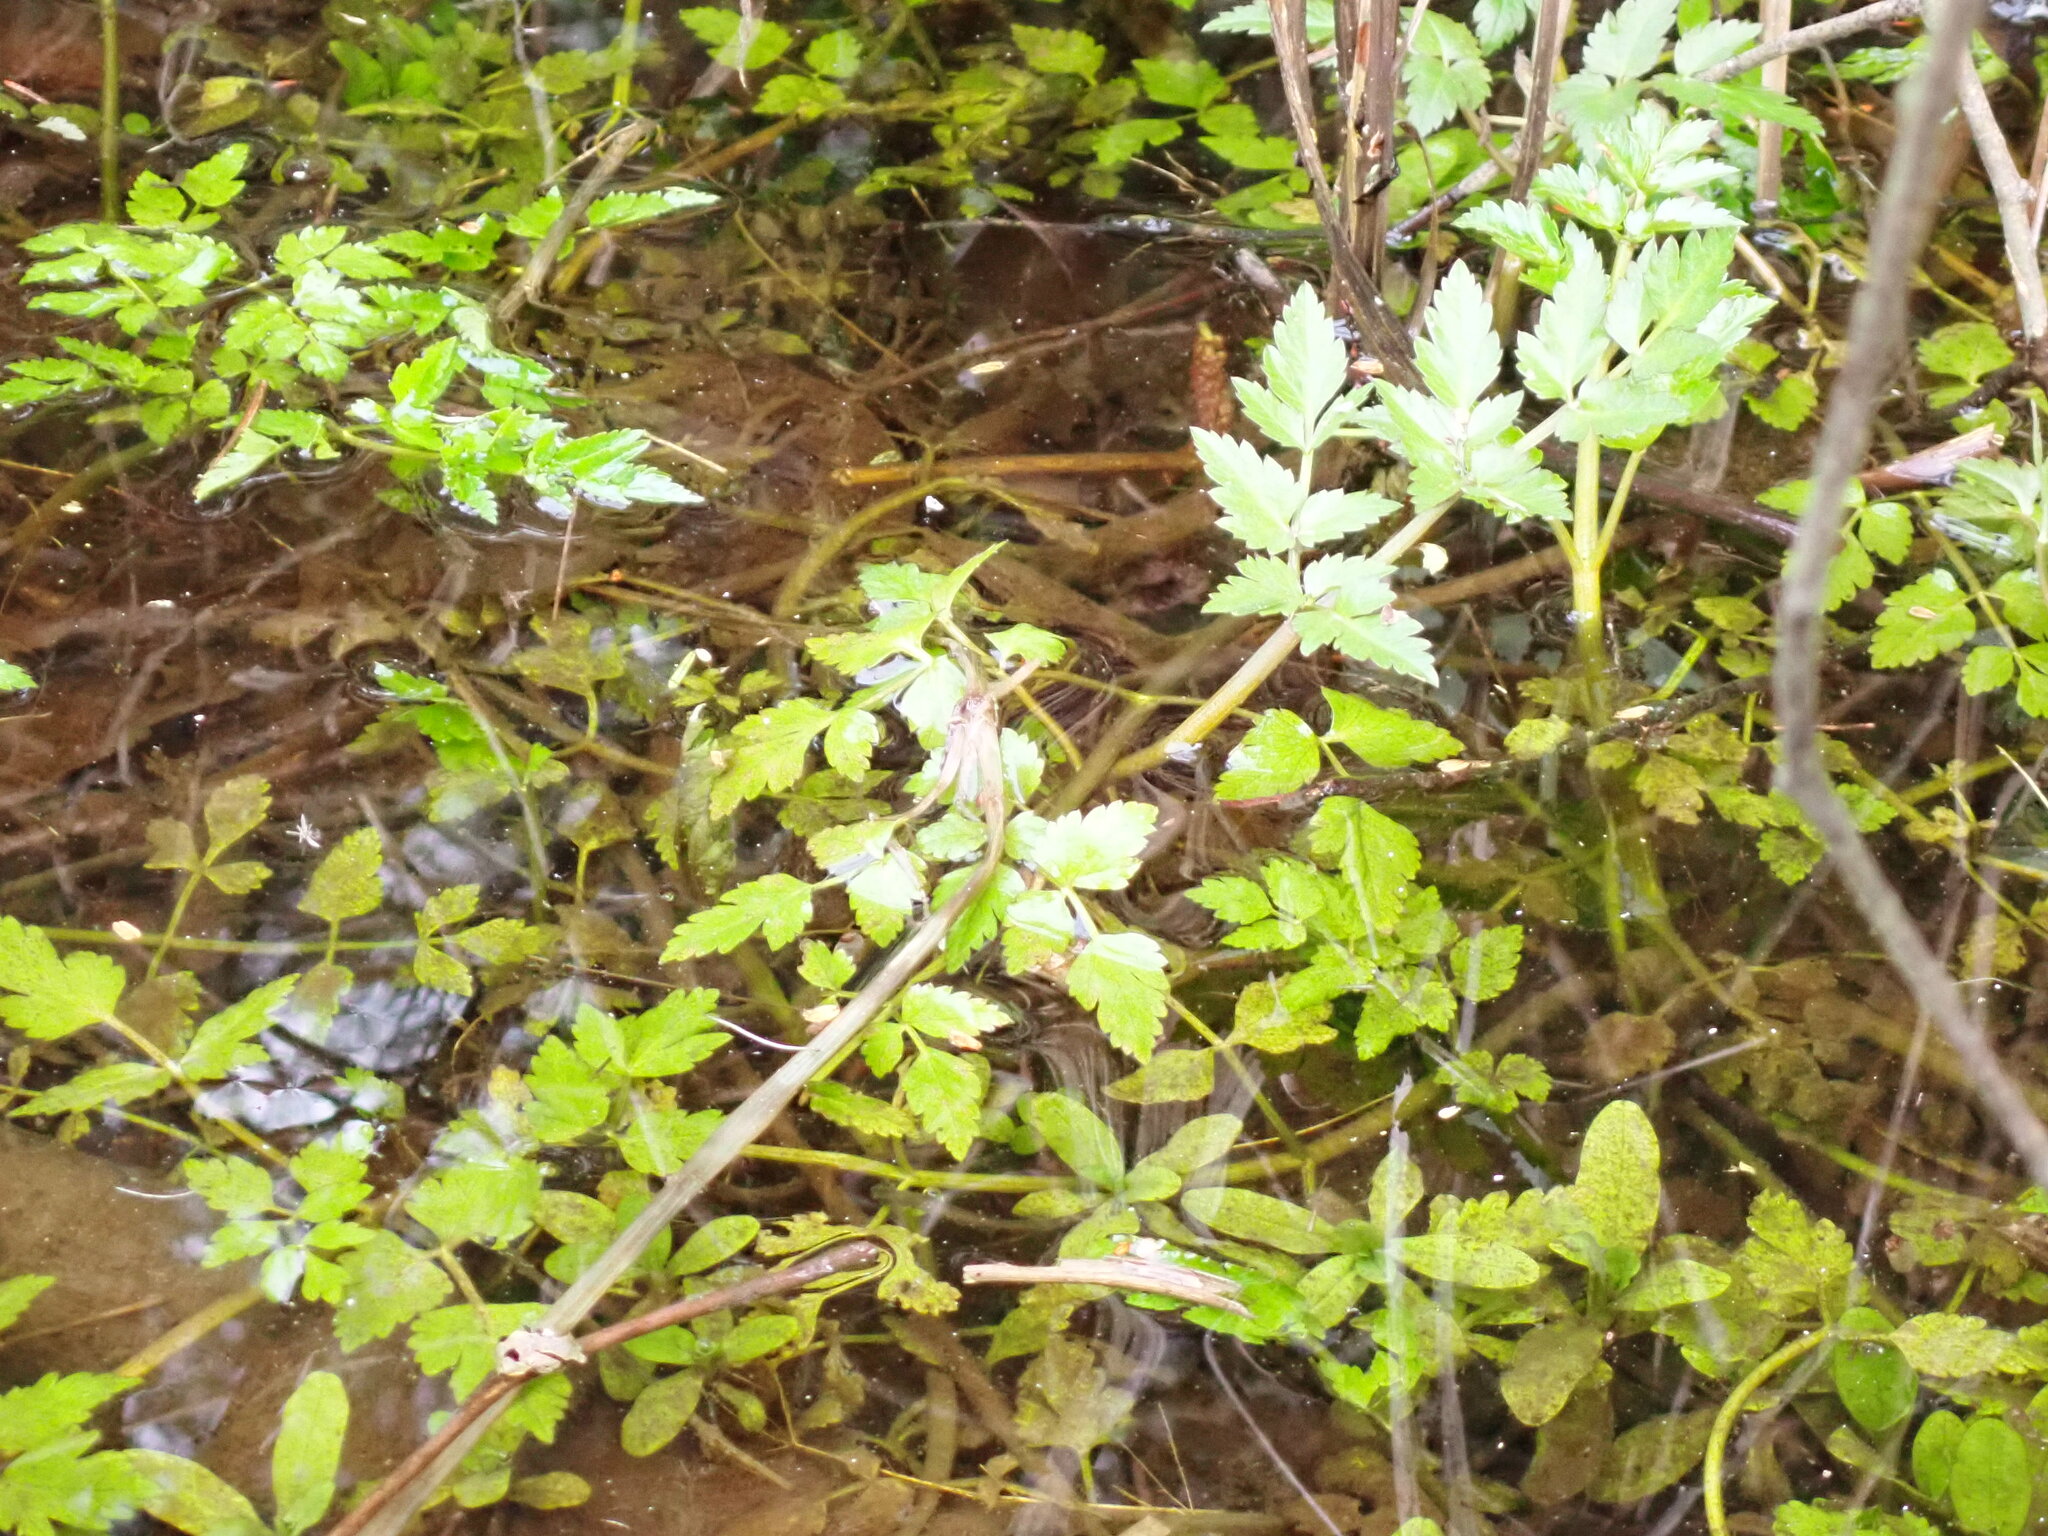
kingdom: Plantae
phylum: Tracheophyta
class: Magnoliopsida
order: Apiales
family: Apiaceae
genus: Oenanthe
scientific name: Oenanthe sarmentosa
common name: American water-parsley
